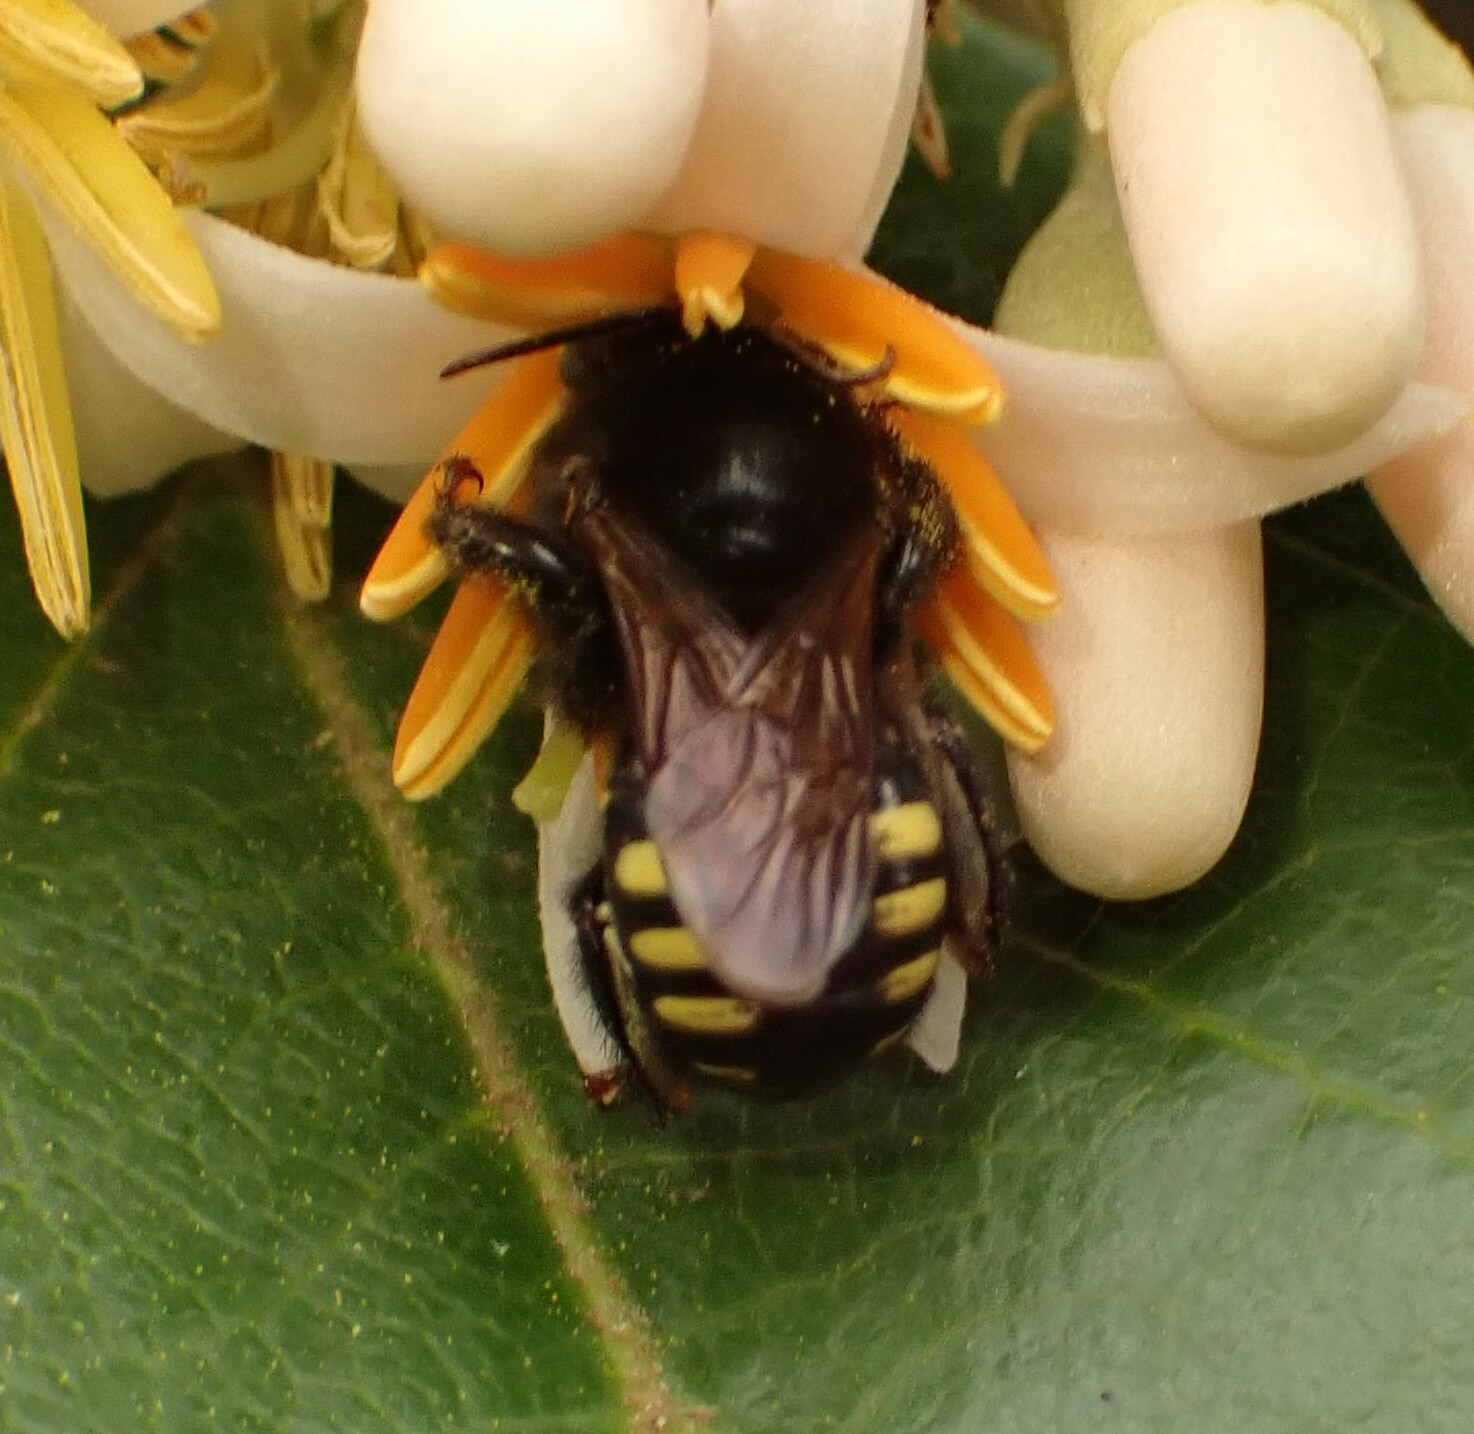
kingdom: Animalia
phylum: Arthropoda
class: Insecta
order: Hymenoptera
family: Apidae
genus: Melipona
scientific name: Melipona quadrifasciata
